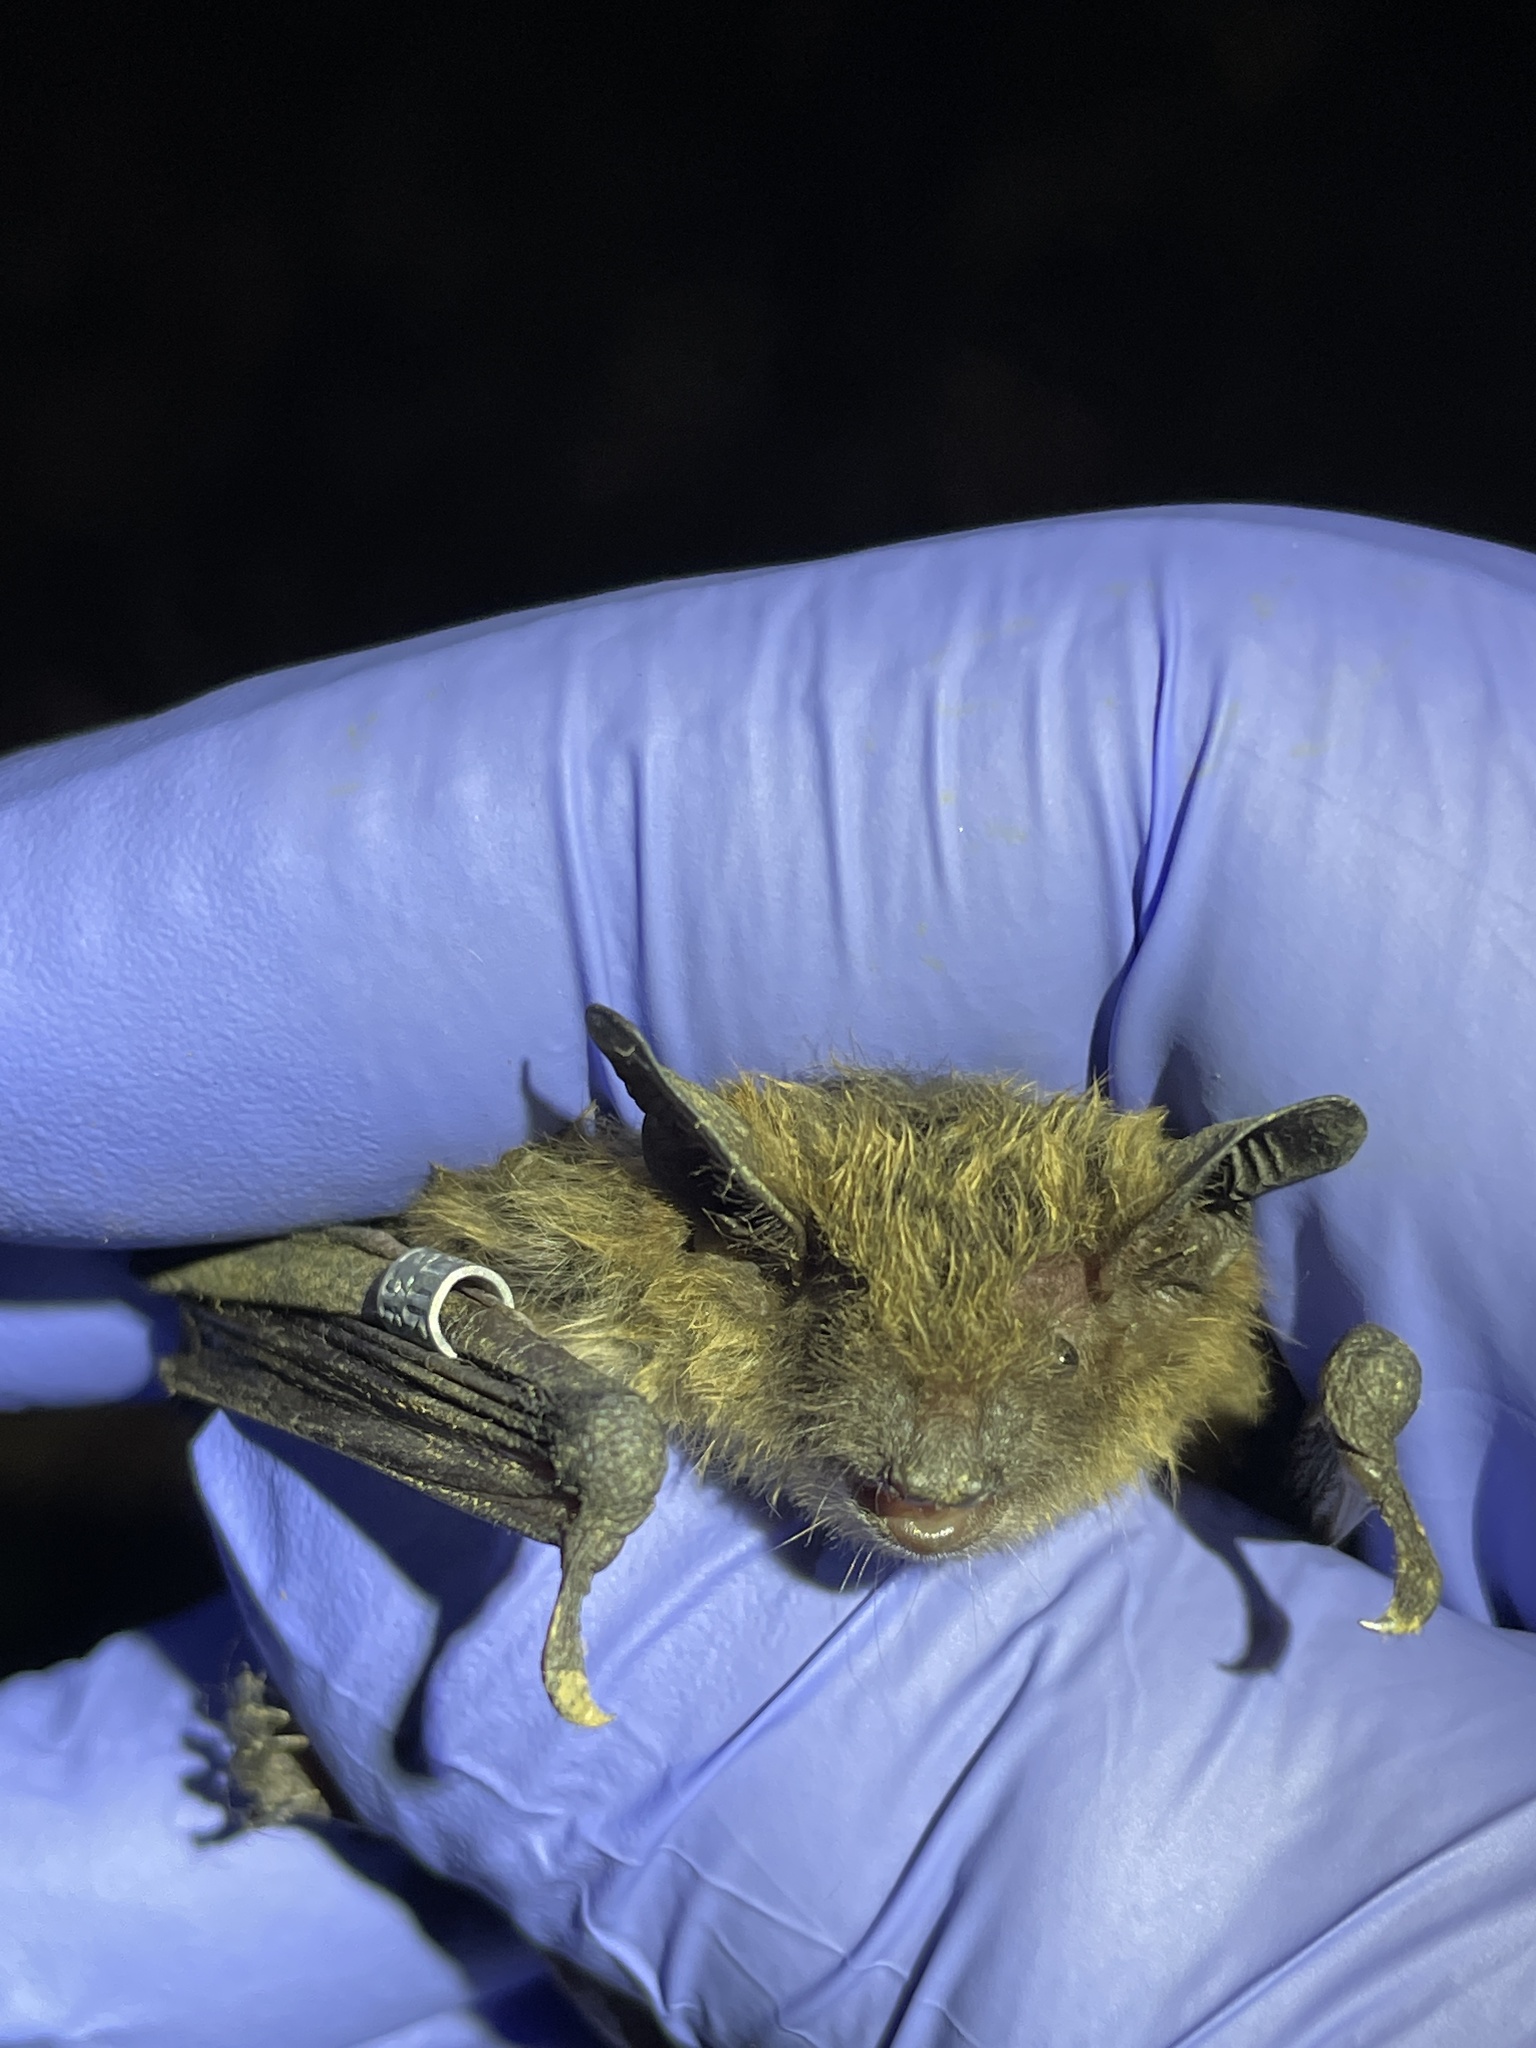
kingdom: Animalia
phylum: Chordata
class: Mammalia
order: Chiroptera
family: Vespertilionidae
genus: Myotis
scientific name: Myotis lucifugus
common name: Little brown bat
